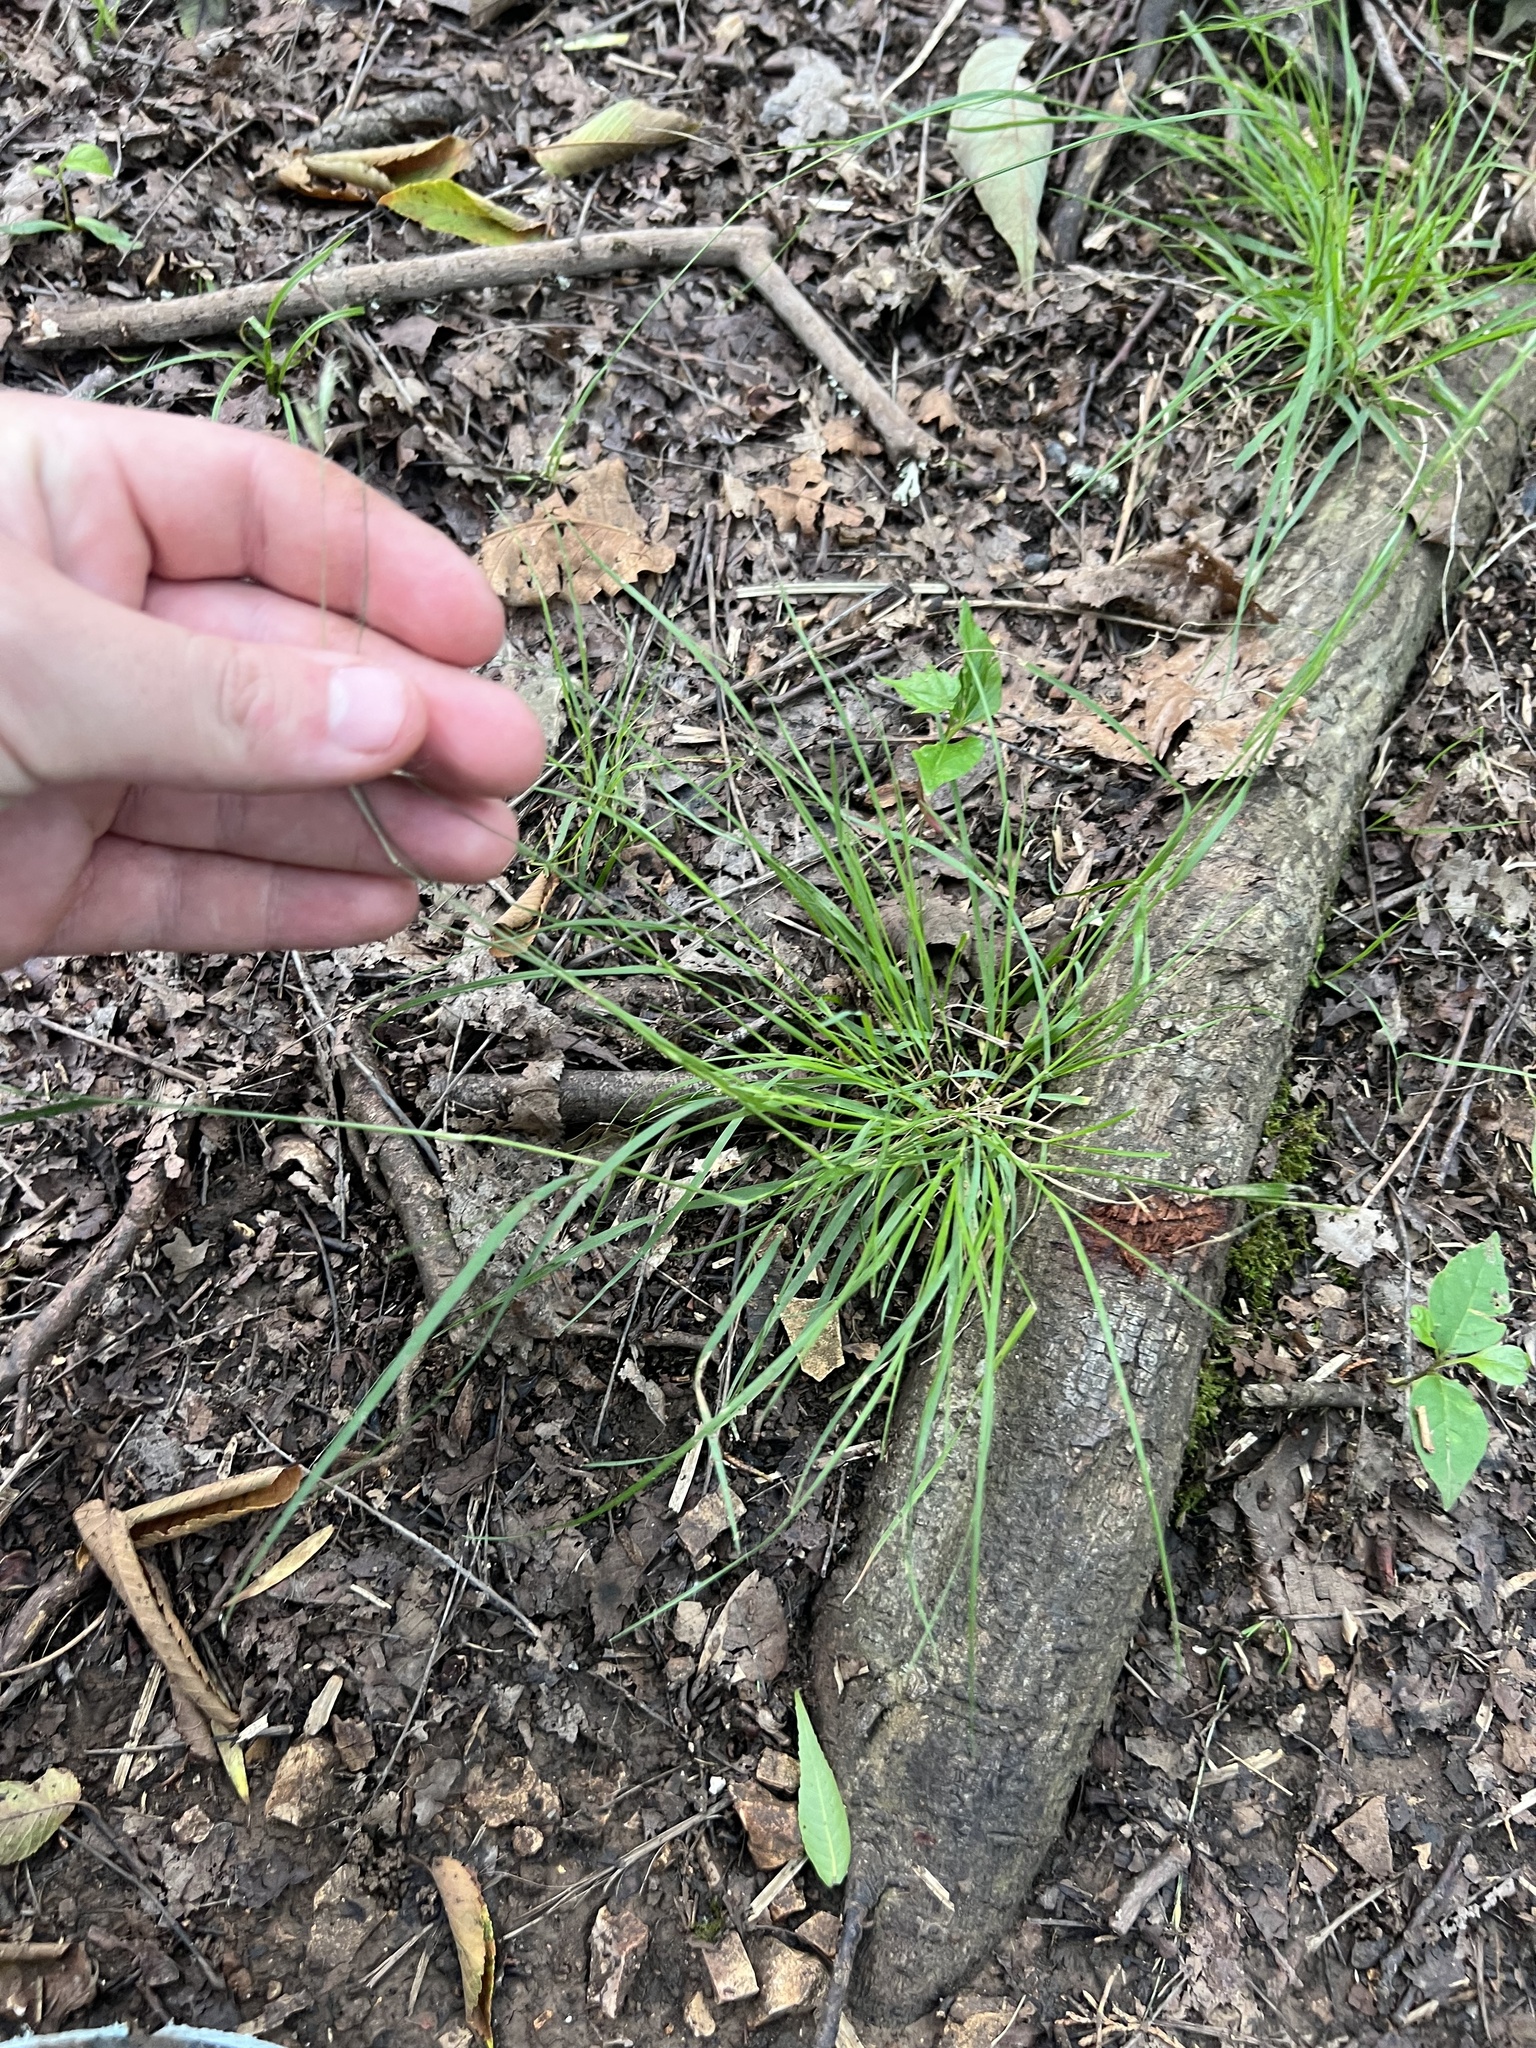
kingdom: Plantae
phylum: Tracheophyta
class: Liliopsida
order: Poales
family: Poaceae
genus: Danthonia
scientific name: Danthonia spicata
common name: Common wild oatgrass
